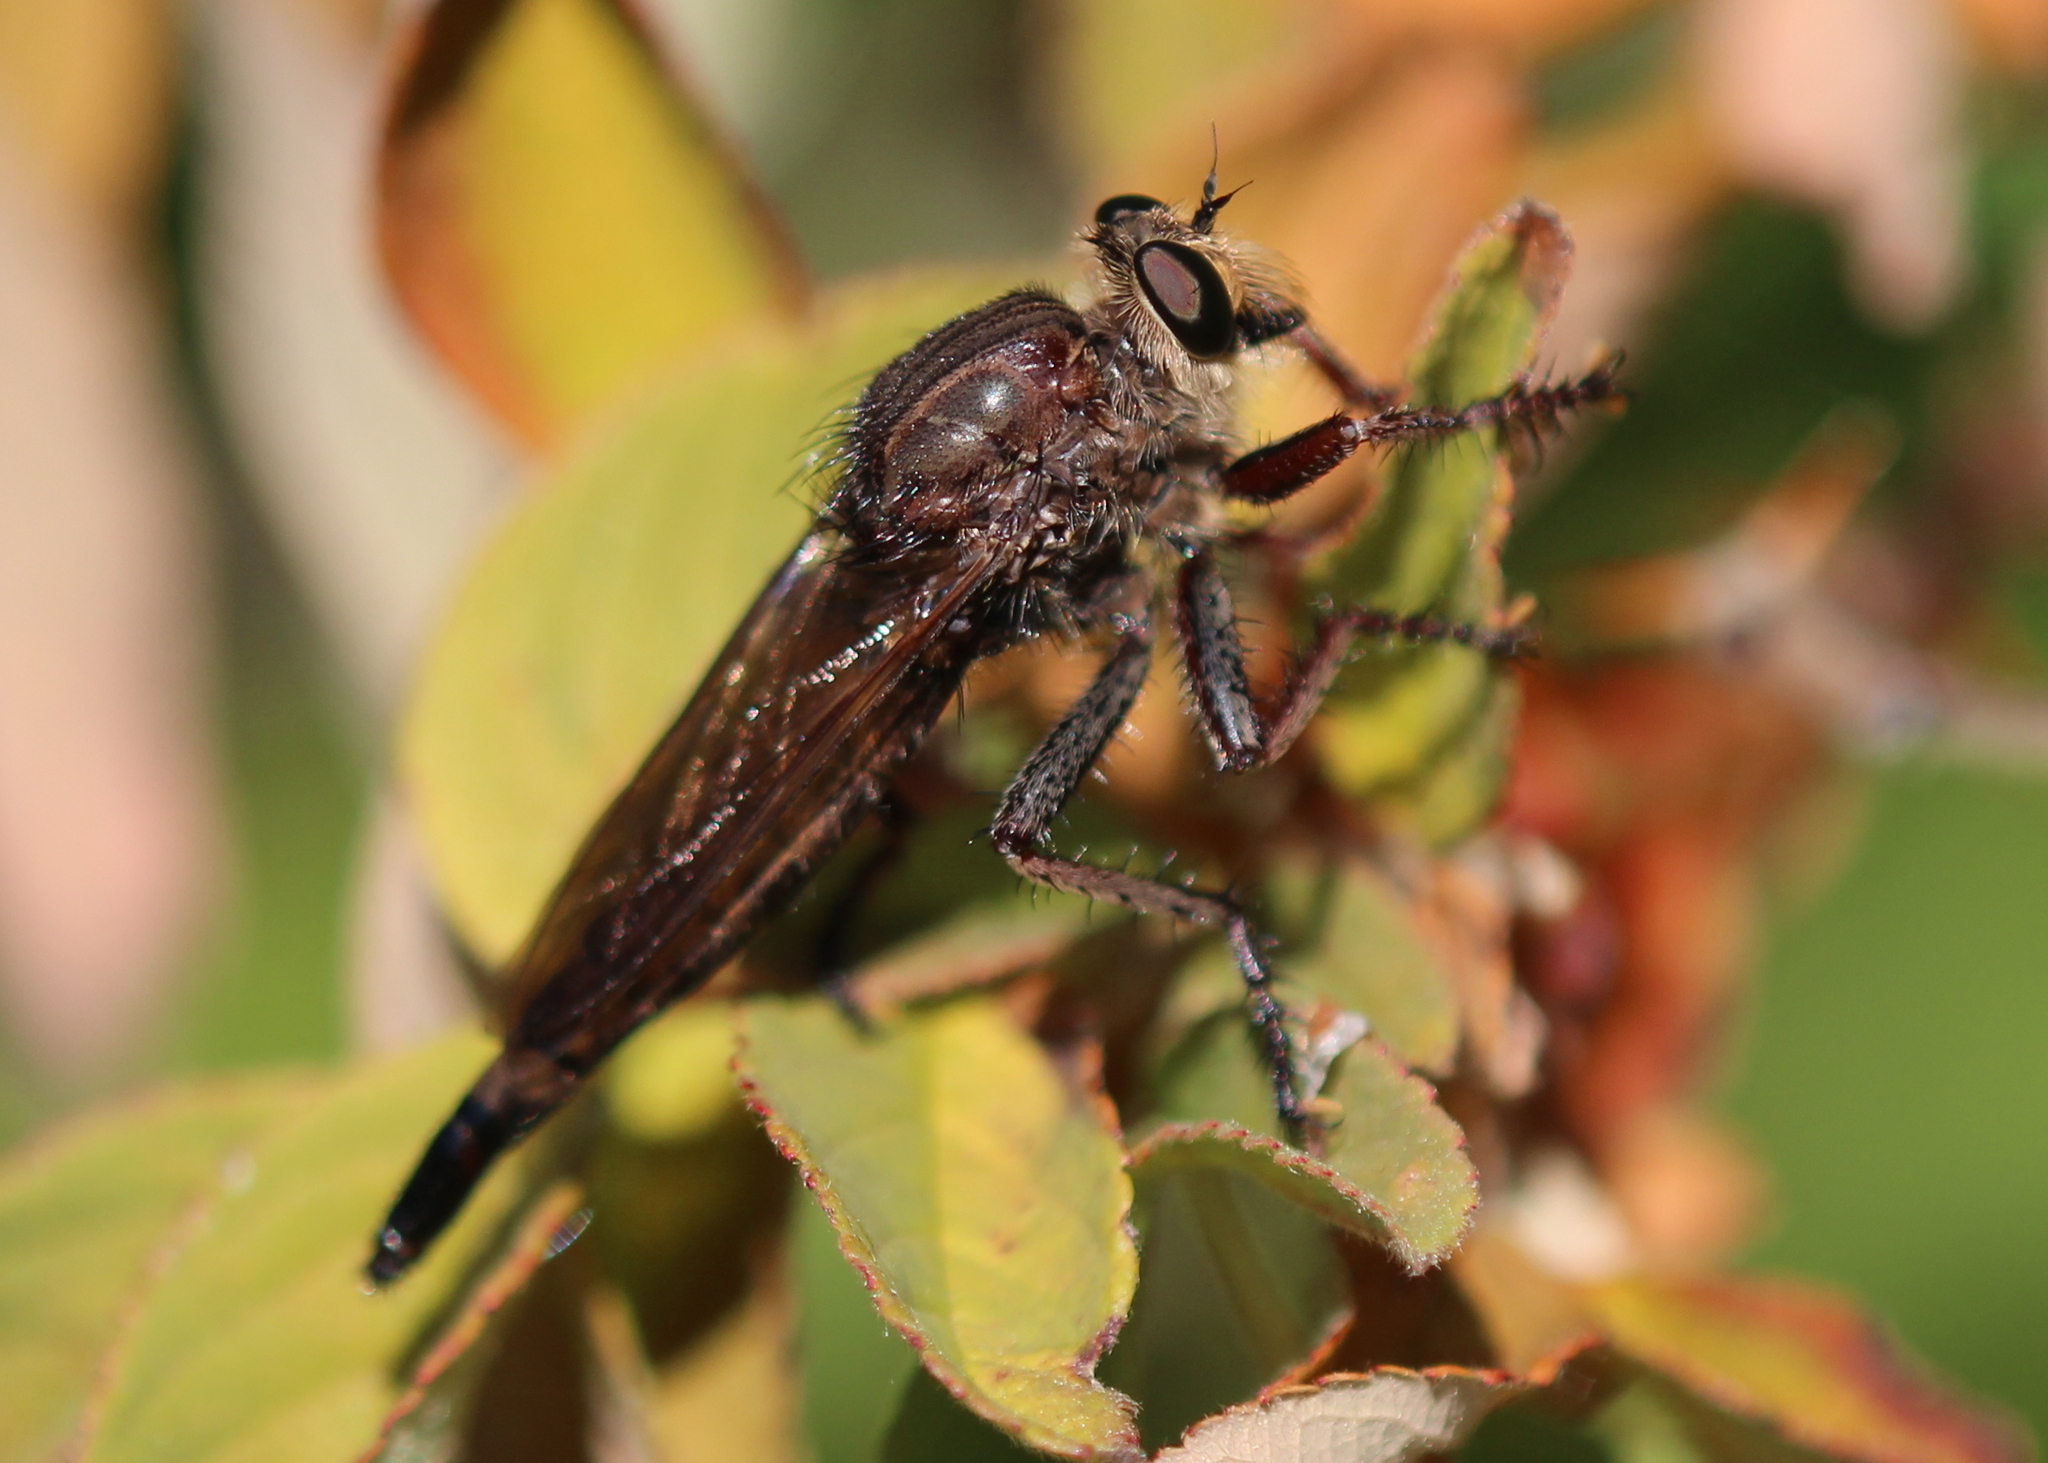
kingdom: Animalia
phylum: Arthropoda
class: Insecta
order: Diptera
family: Asilidae
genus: Proctacanthus
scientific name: Proctacanthus philadelphicus
